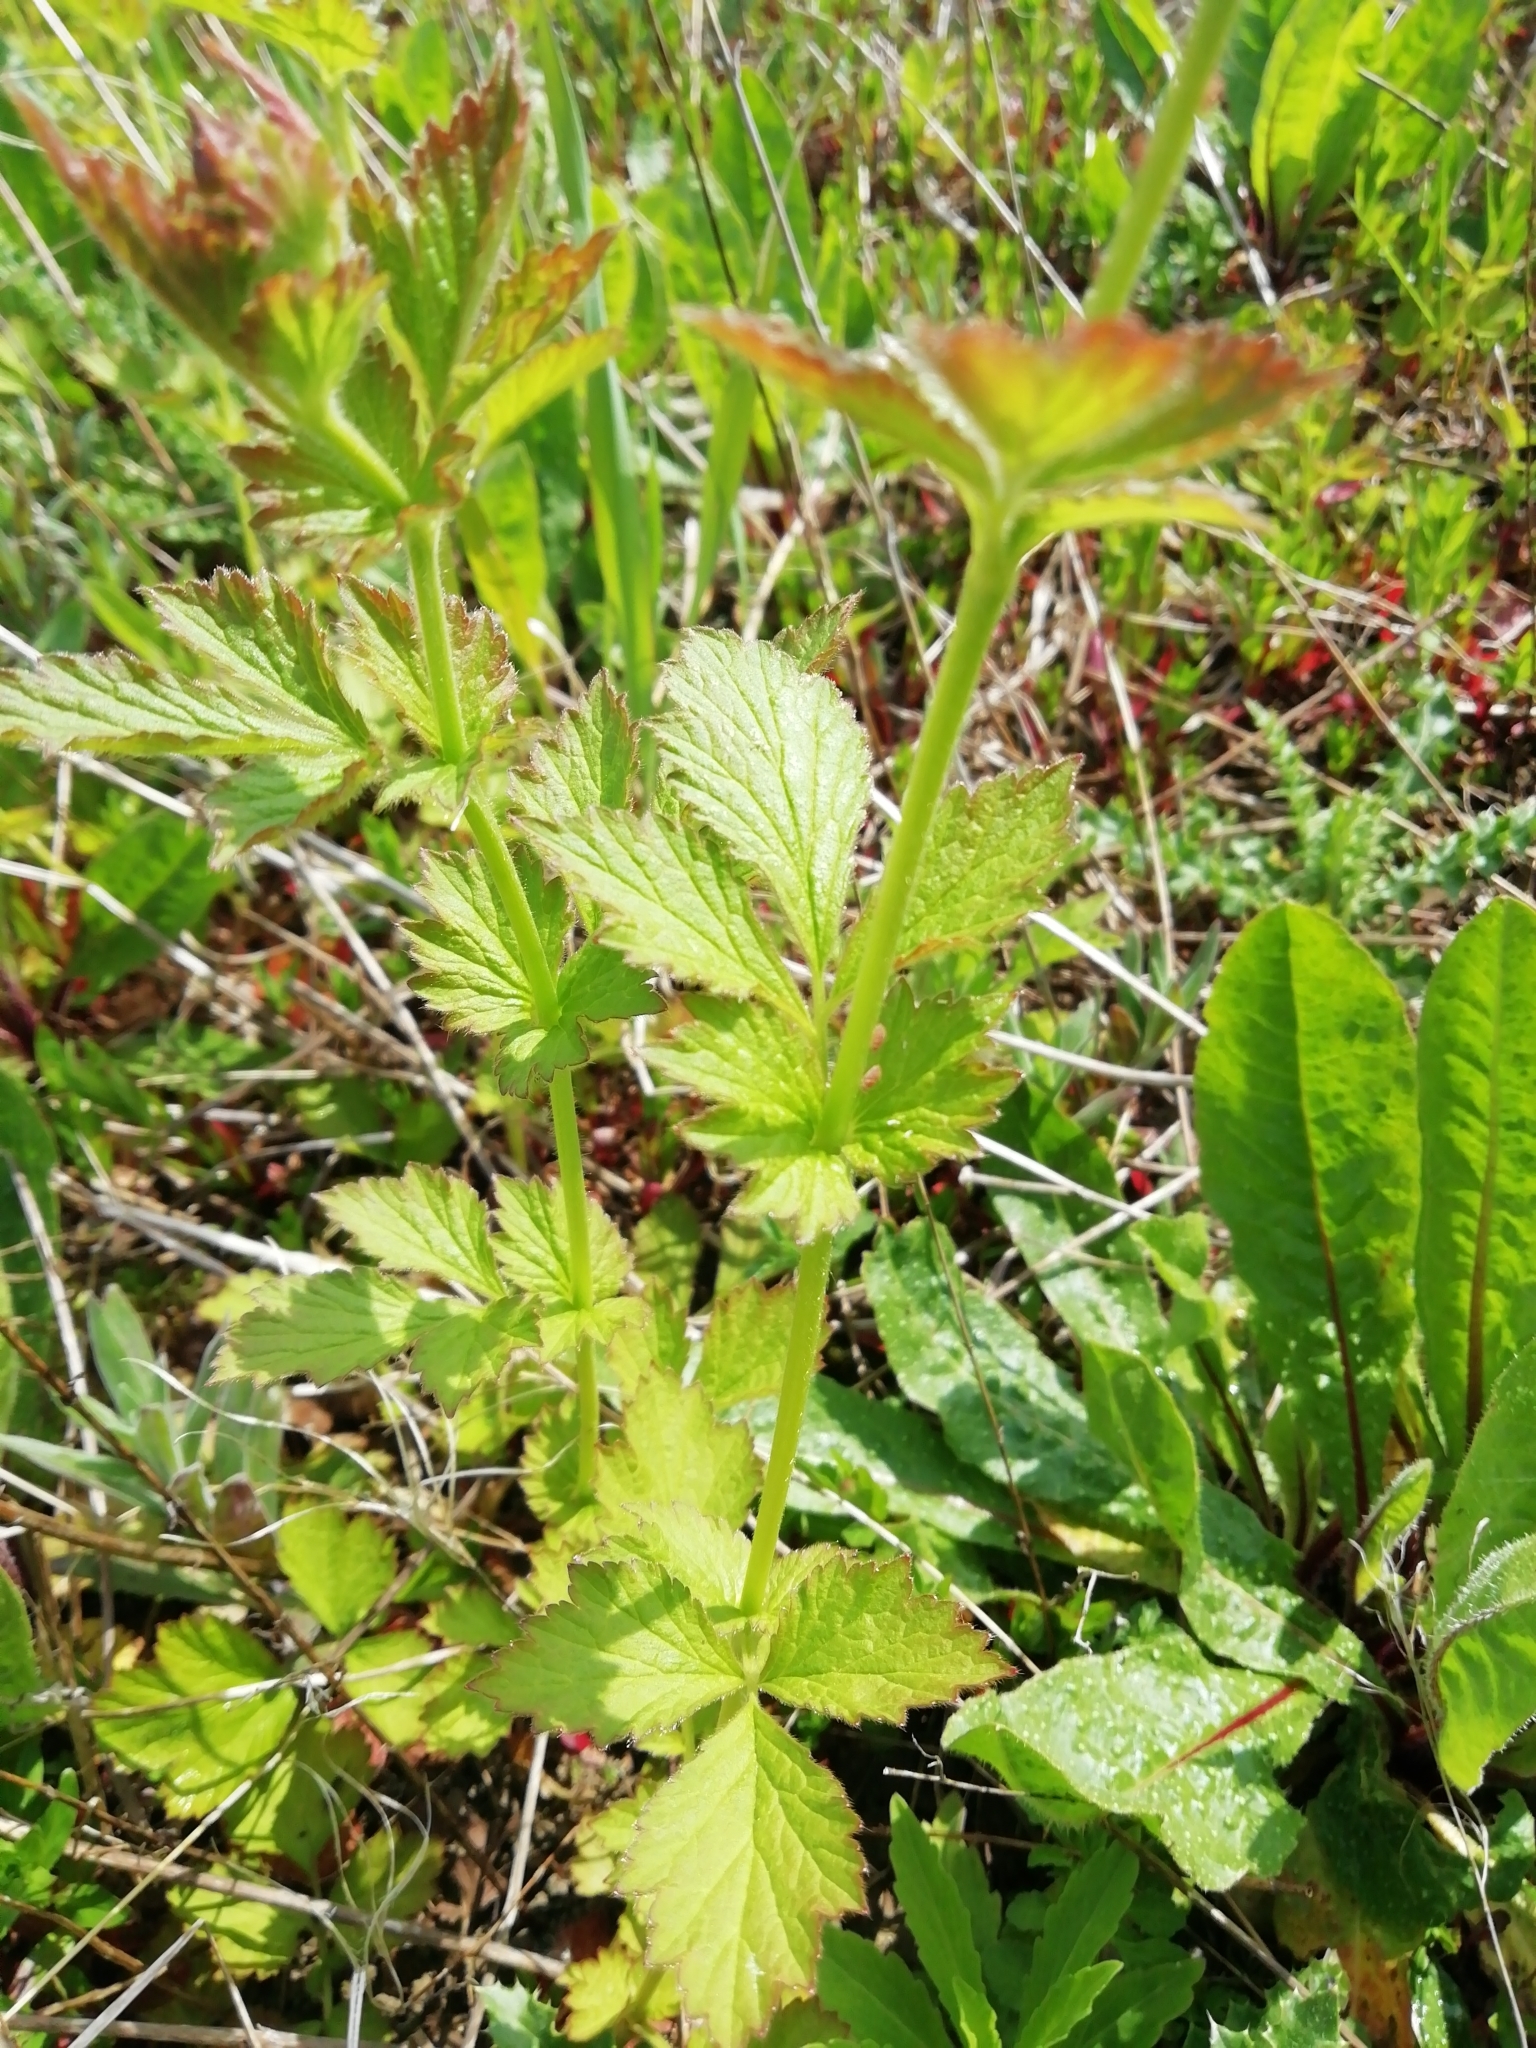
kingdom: Plantae
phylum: Tracheophyta
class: Magnoliopsida
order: Rosales
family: Rosaceae
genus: Geum
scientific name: Geum urbanum
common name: Wood avens
